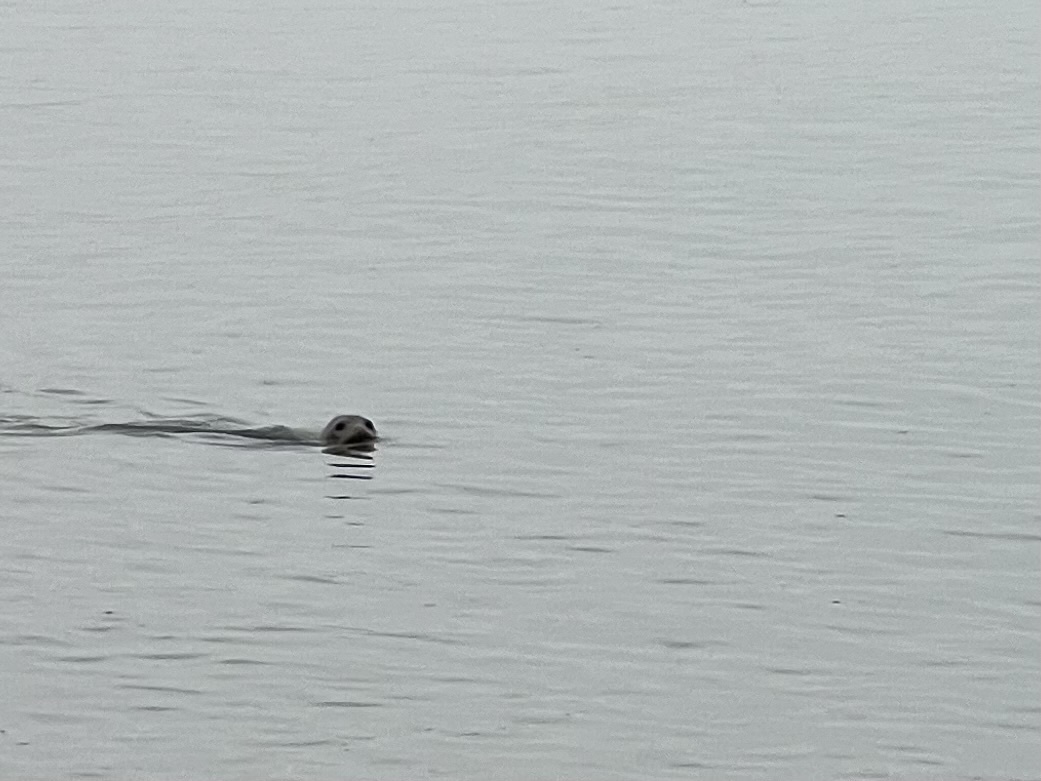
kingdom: Animalia
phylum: Chordata
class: Mammalia
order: Carnivora
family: Phocidae
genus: Halichoerus
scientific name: Halichoerus grypus
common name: Grey seal
